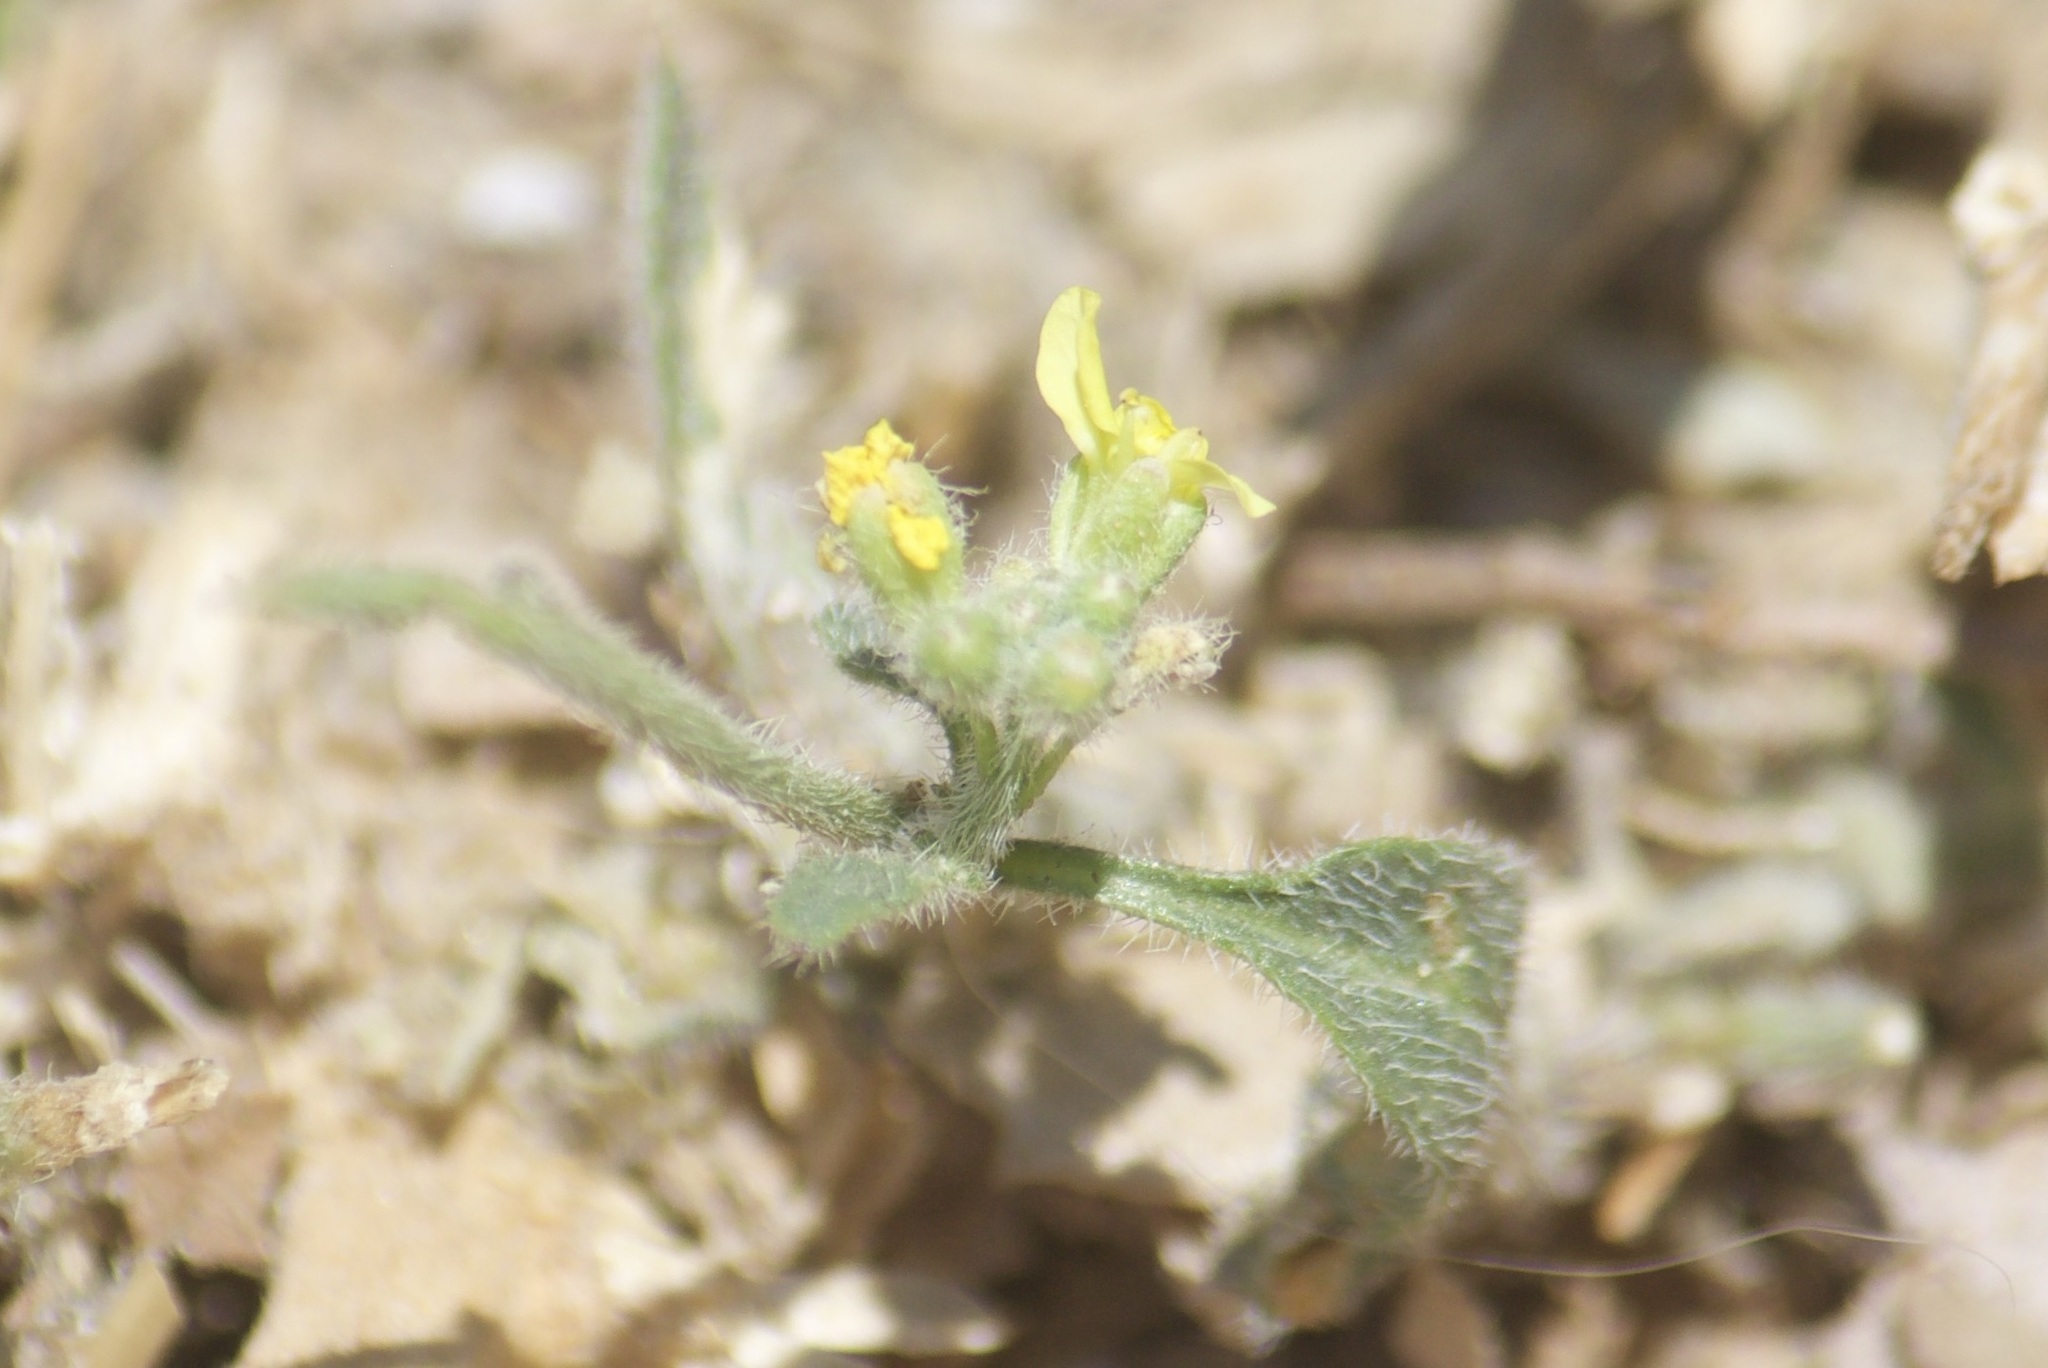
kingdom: Plantae
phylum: Tracheophyta
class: Magnoliopsida
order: Myrtales
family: Onagraceae
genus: Camissoniopsis
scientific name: Camissoniopsis
